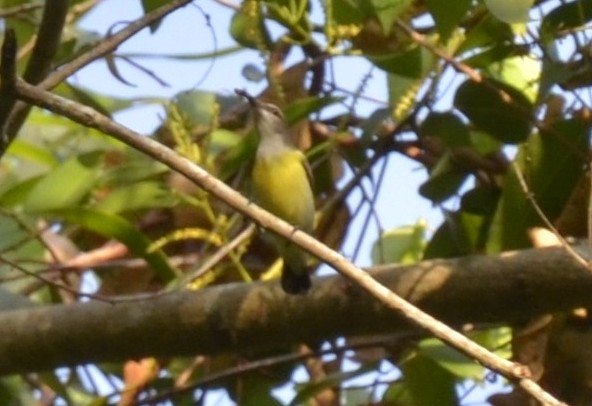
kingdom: Animalia
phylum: Chordata
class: Aves
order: Passeriformes
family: Nectariniidae
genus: Leptocoma
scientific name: Leptocoma zeylonica
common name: Purple-rumped sunbird
